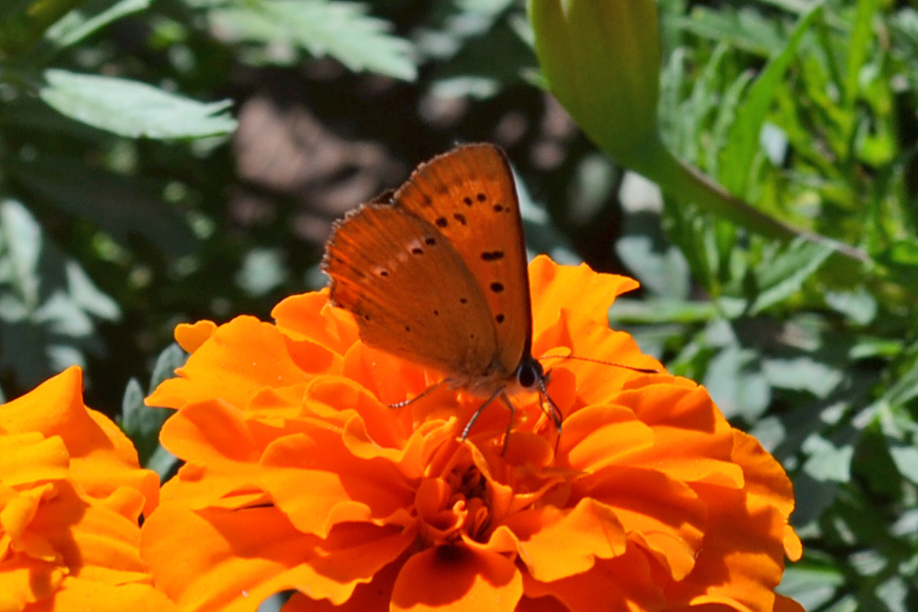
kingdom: Animalia
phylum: Arthropoda
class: Insecta
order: Lepidoptera
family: Lycaenidae
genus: Lycaena
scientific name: Lycaena virgaureae
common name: Scarce copper
